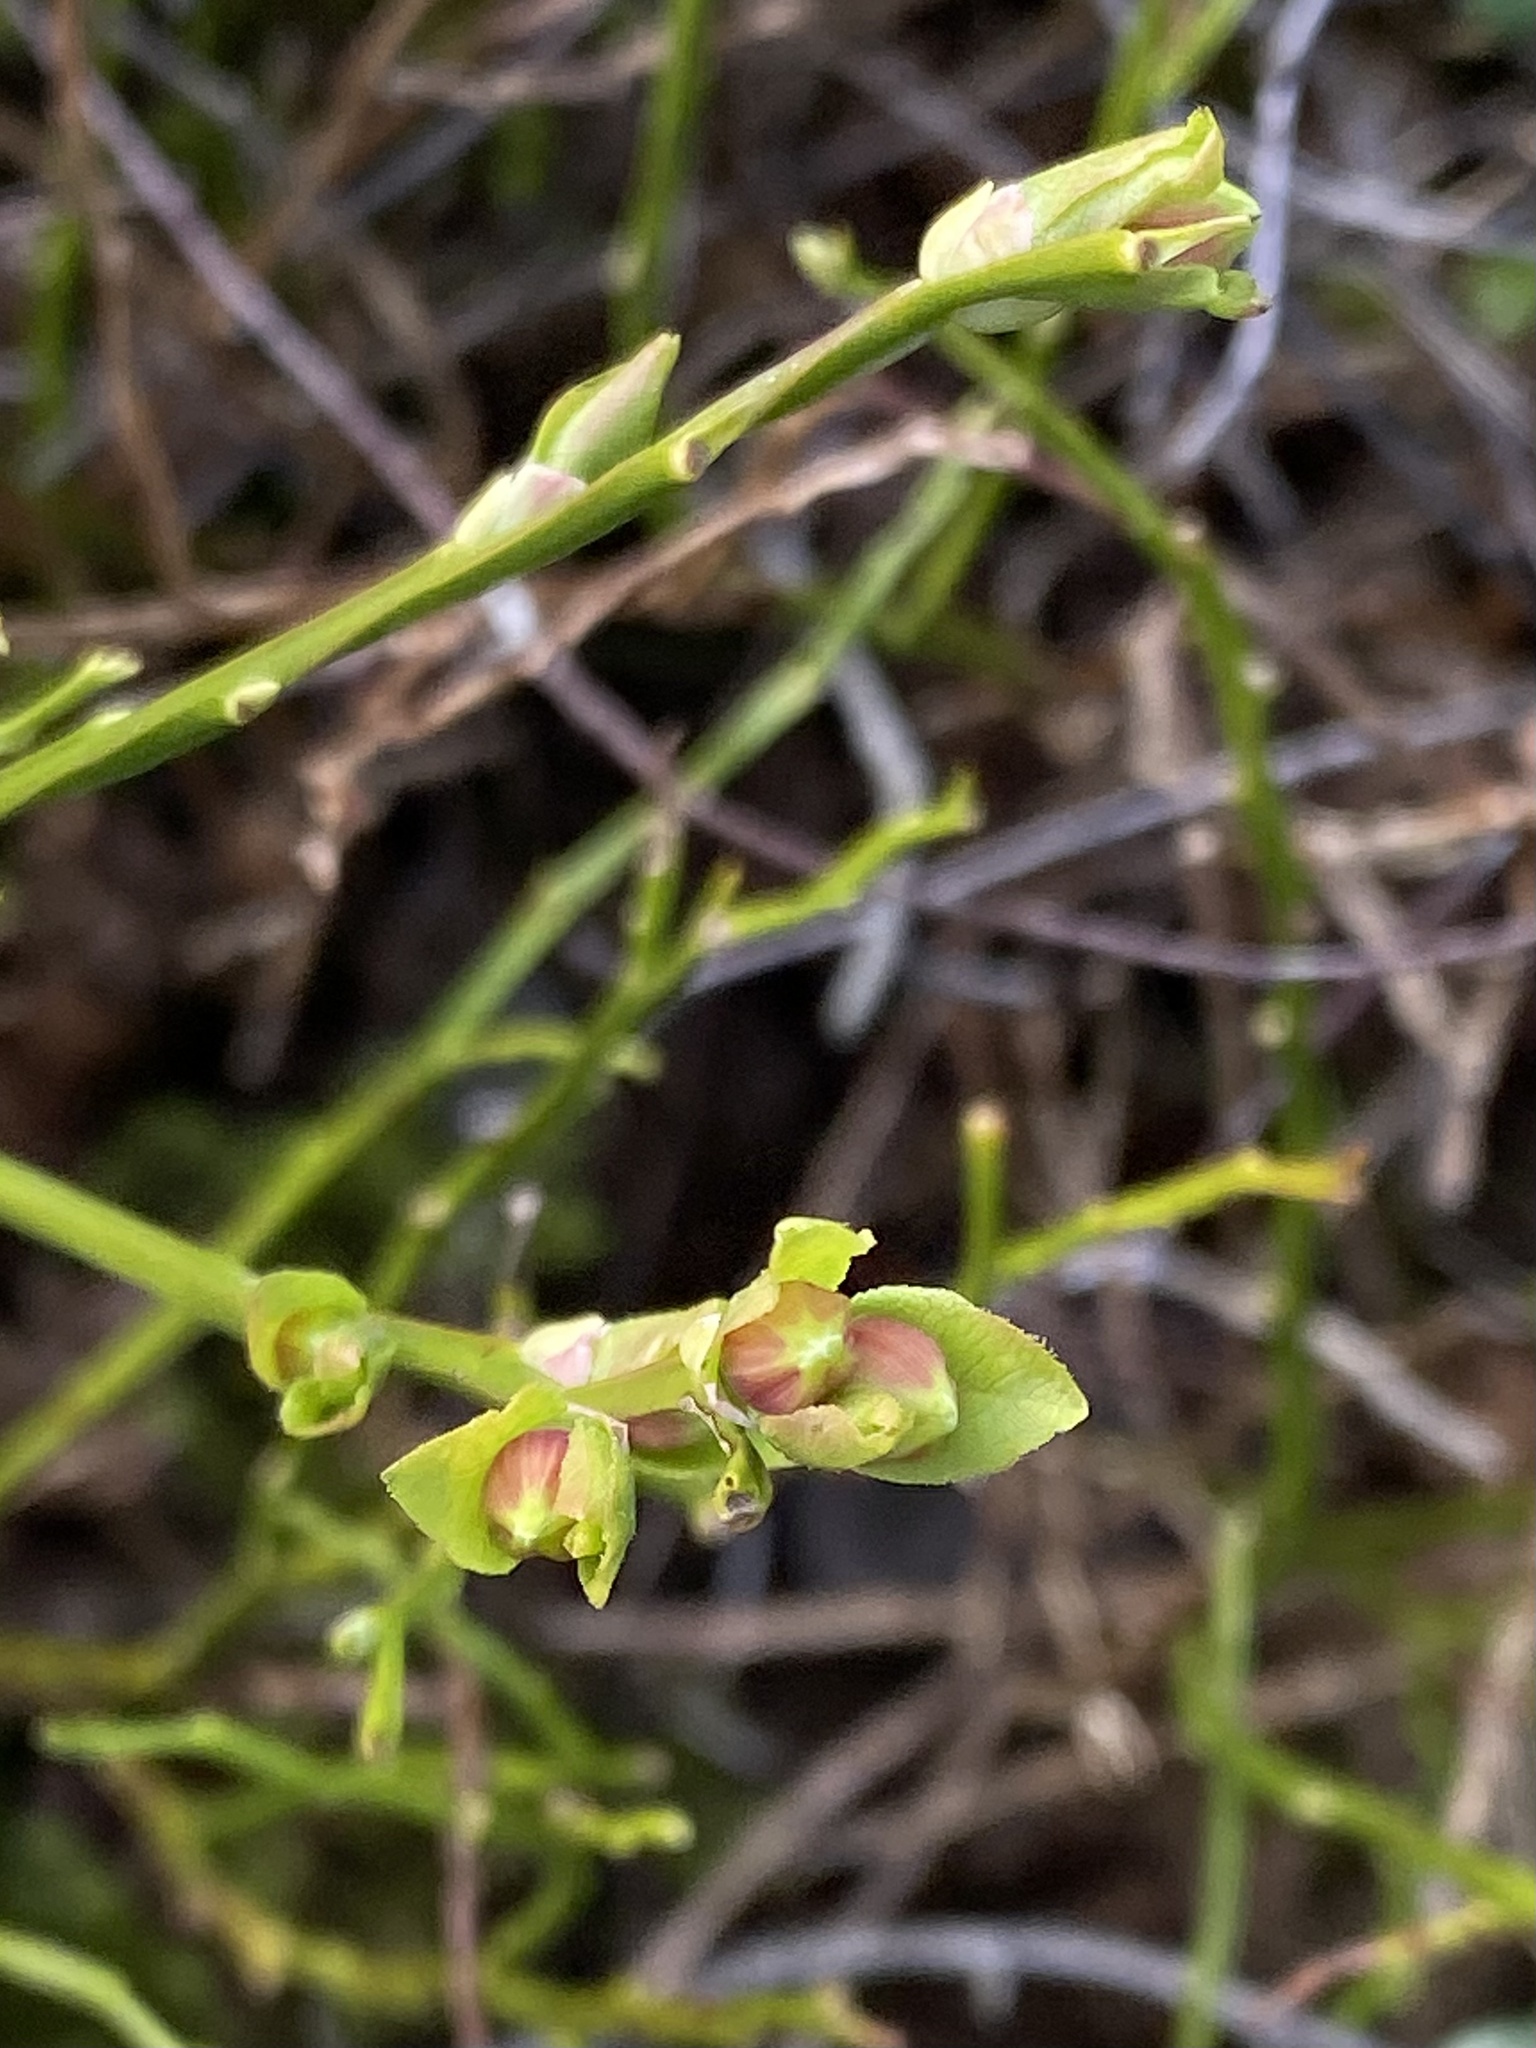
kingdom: Plantae
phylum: Tracheophyta
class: Magnoliopsida
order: Ericales
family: Ericaceae
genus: Vaccinium
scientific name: Vaccinium myrtillus
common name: Bilberry
